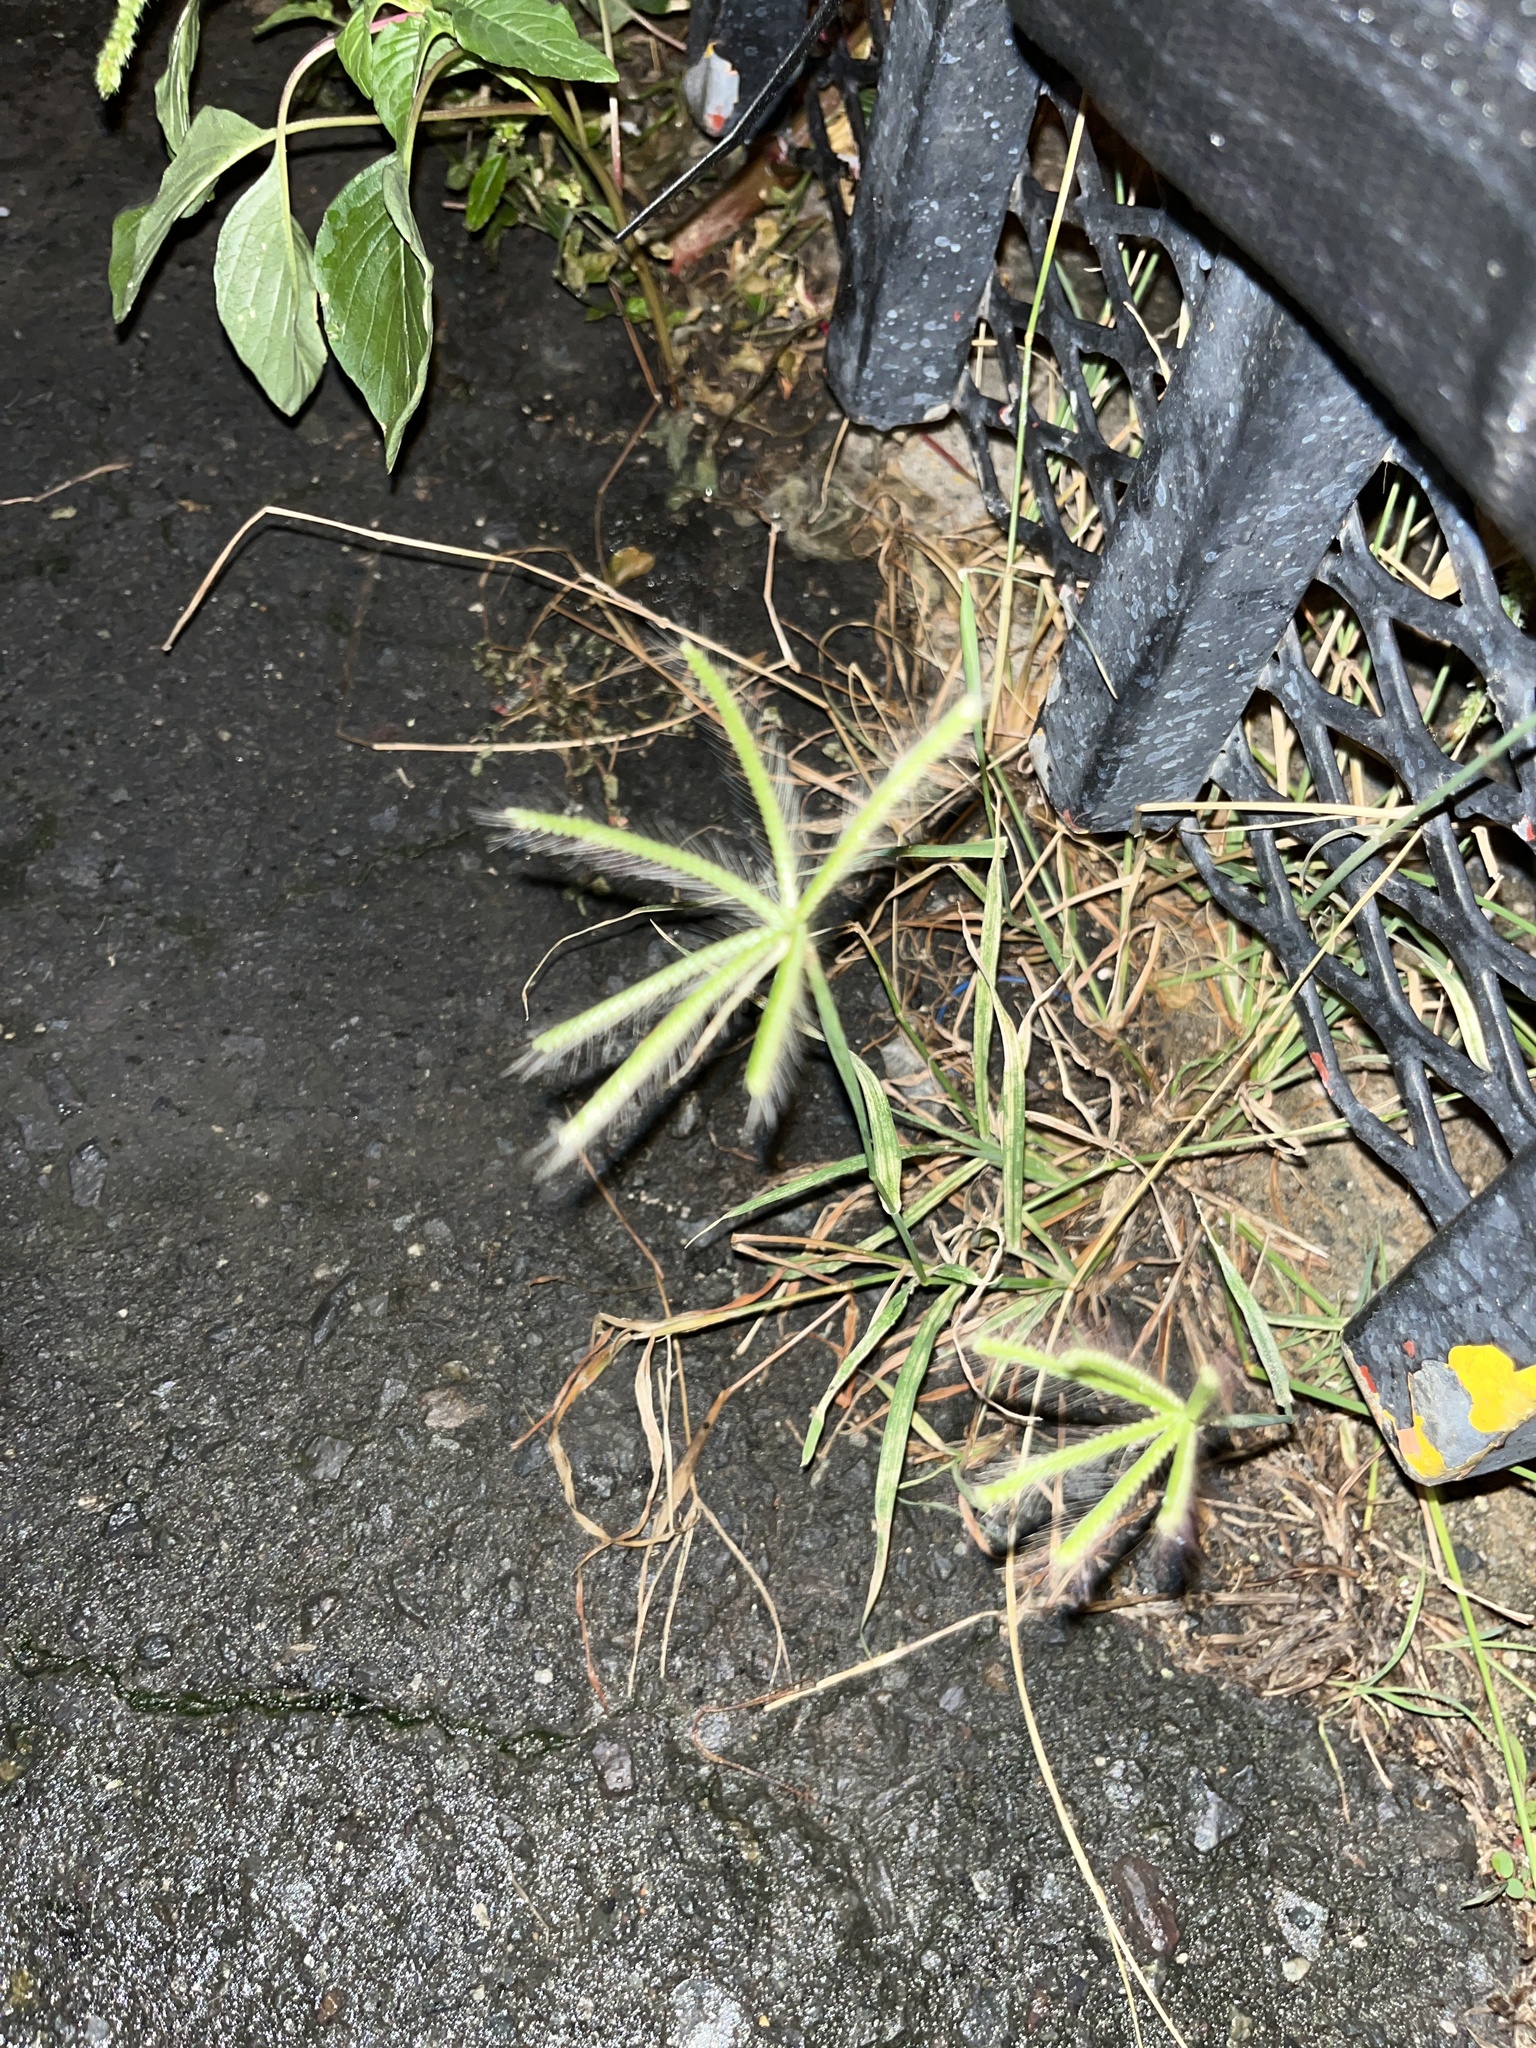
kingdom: Plantae
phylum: Tracheophyta
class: Liliopsida
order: Poales
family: Poaceae
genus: Chloris
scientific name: Chloris barbata
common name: Swollen fingergrass
